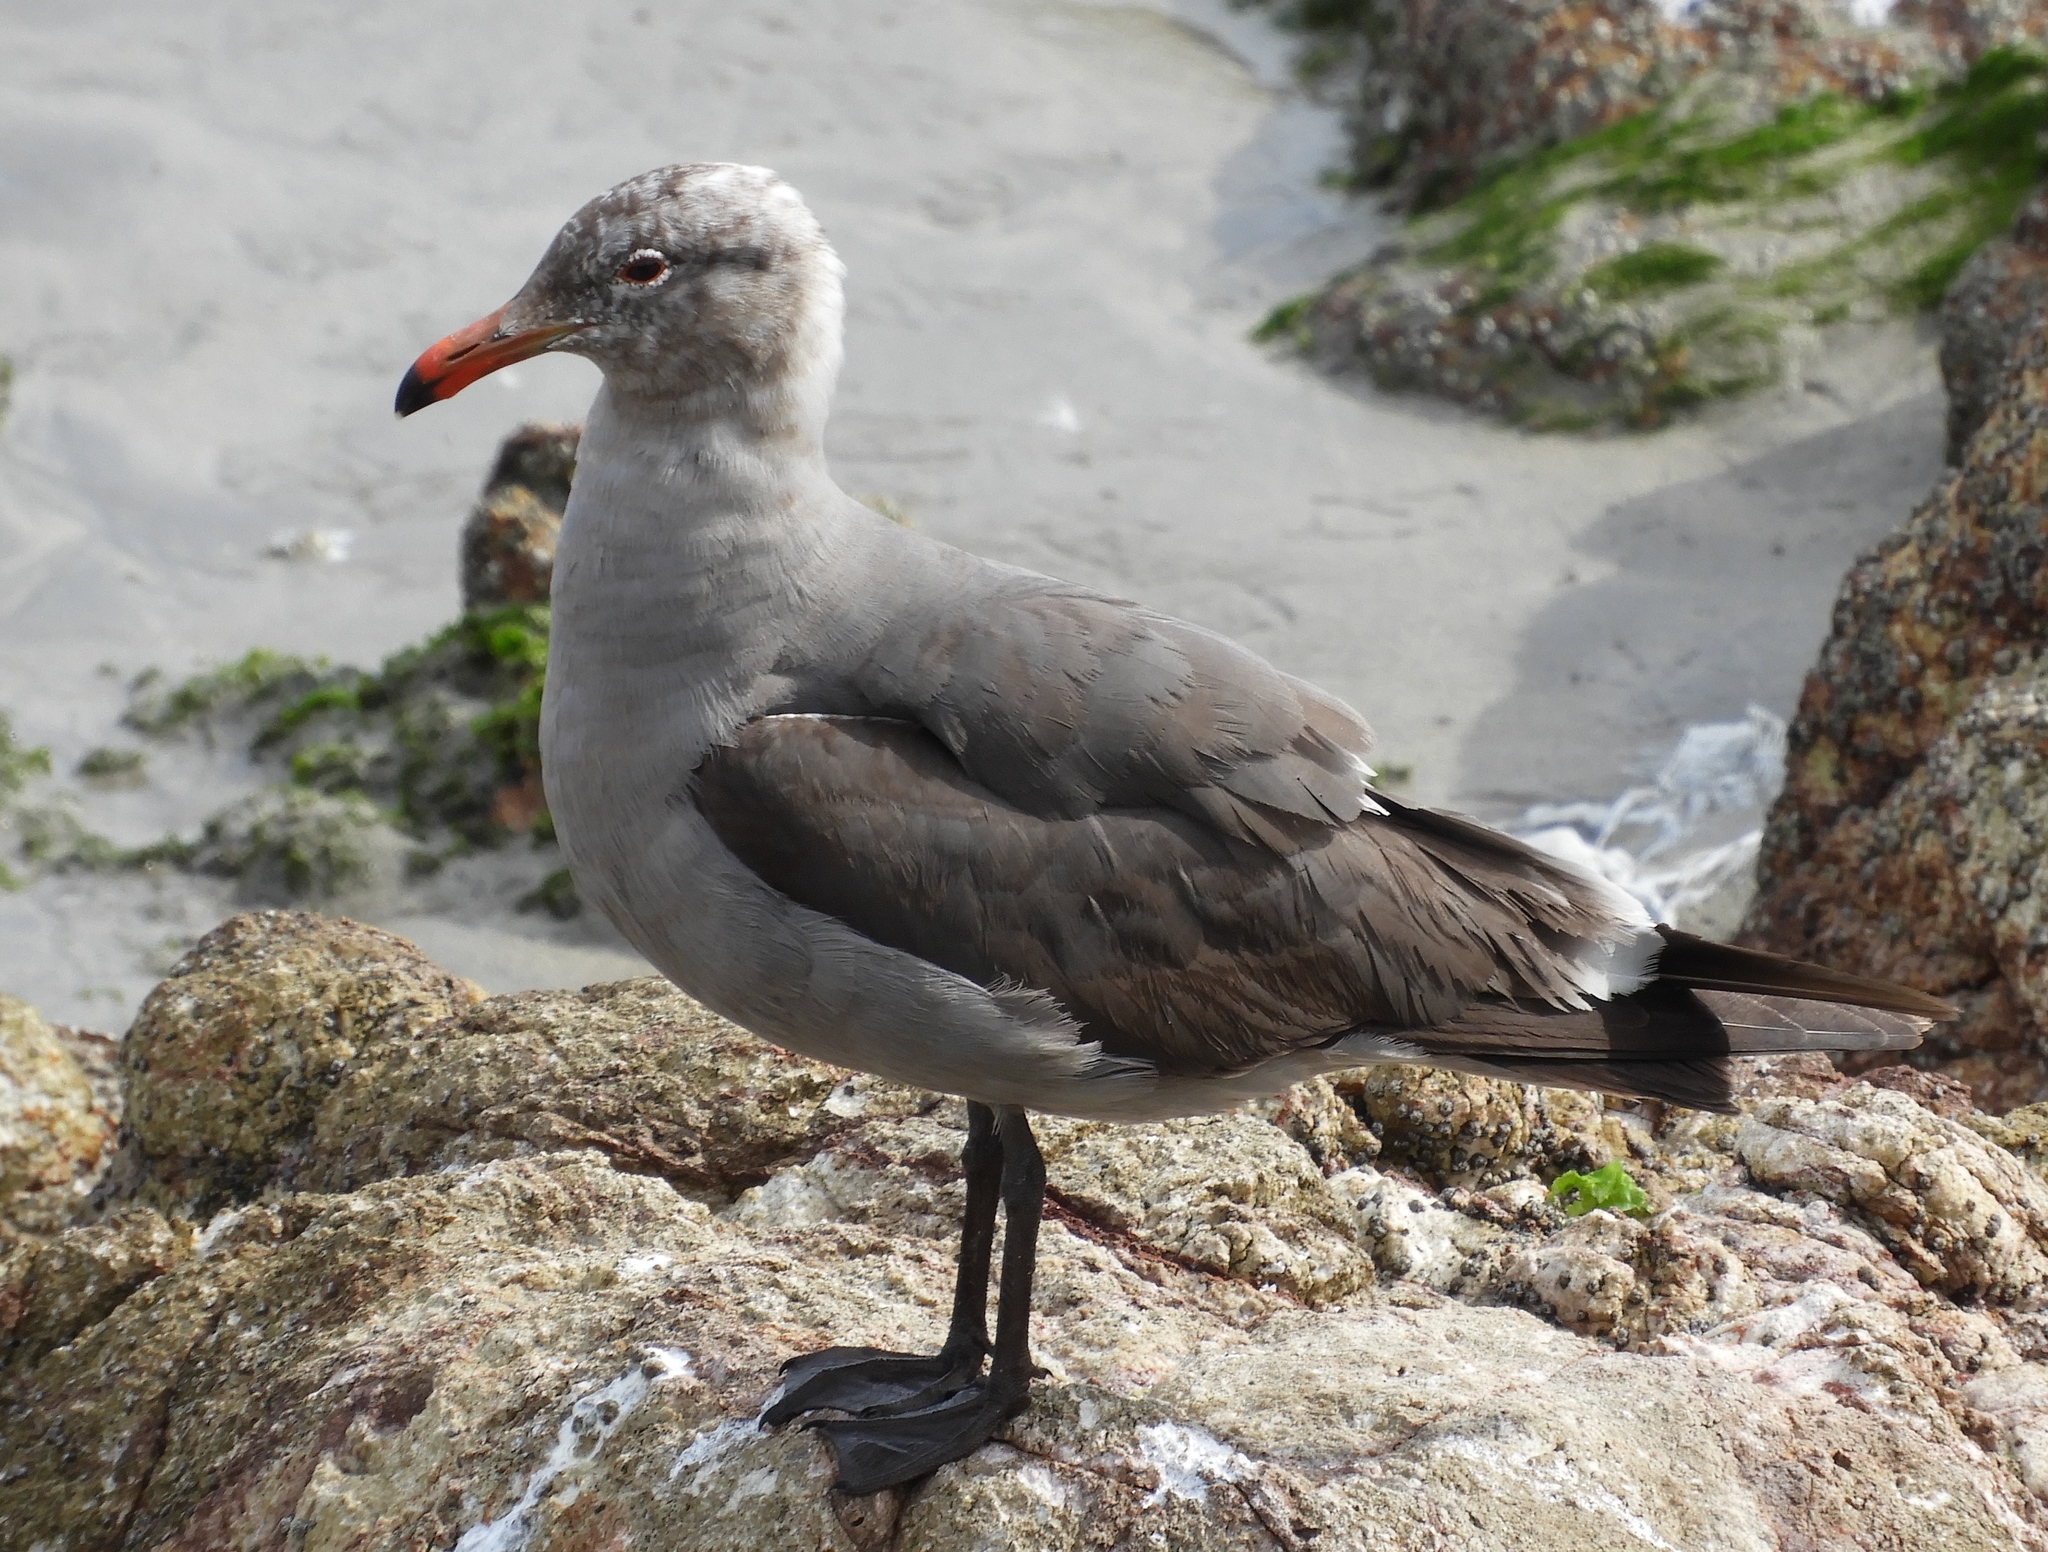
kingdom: Animalia
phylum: Chordata
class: Aves
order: Charadriiformes
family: Laridae
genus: Larus
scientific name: Larus heermanni
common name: Heermann's gull
